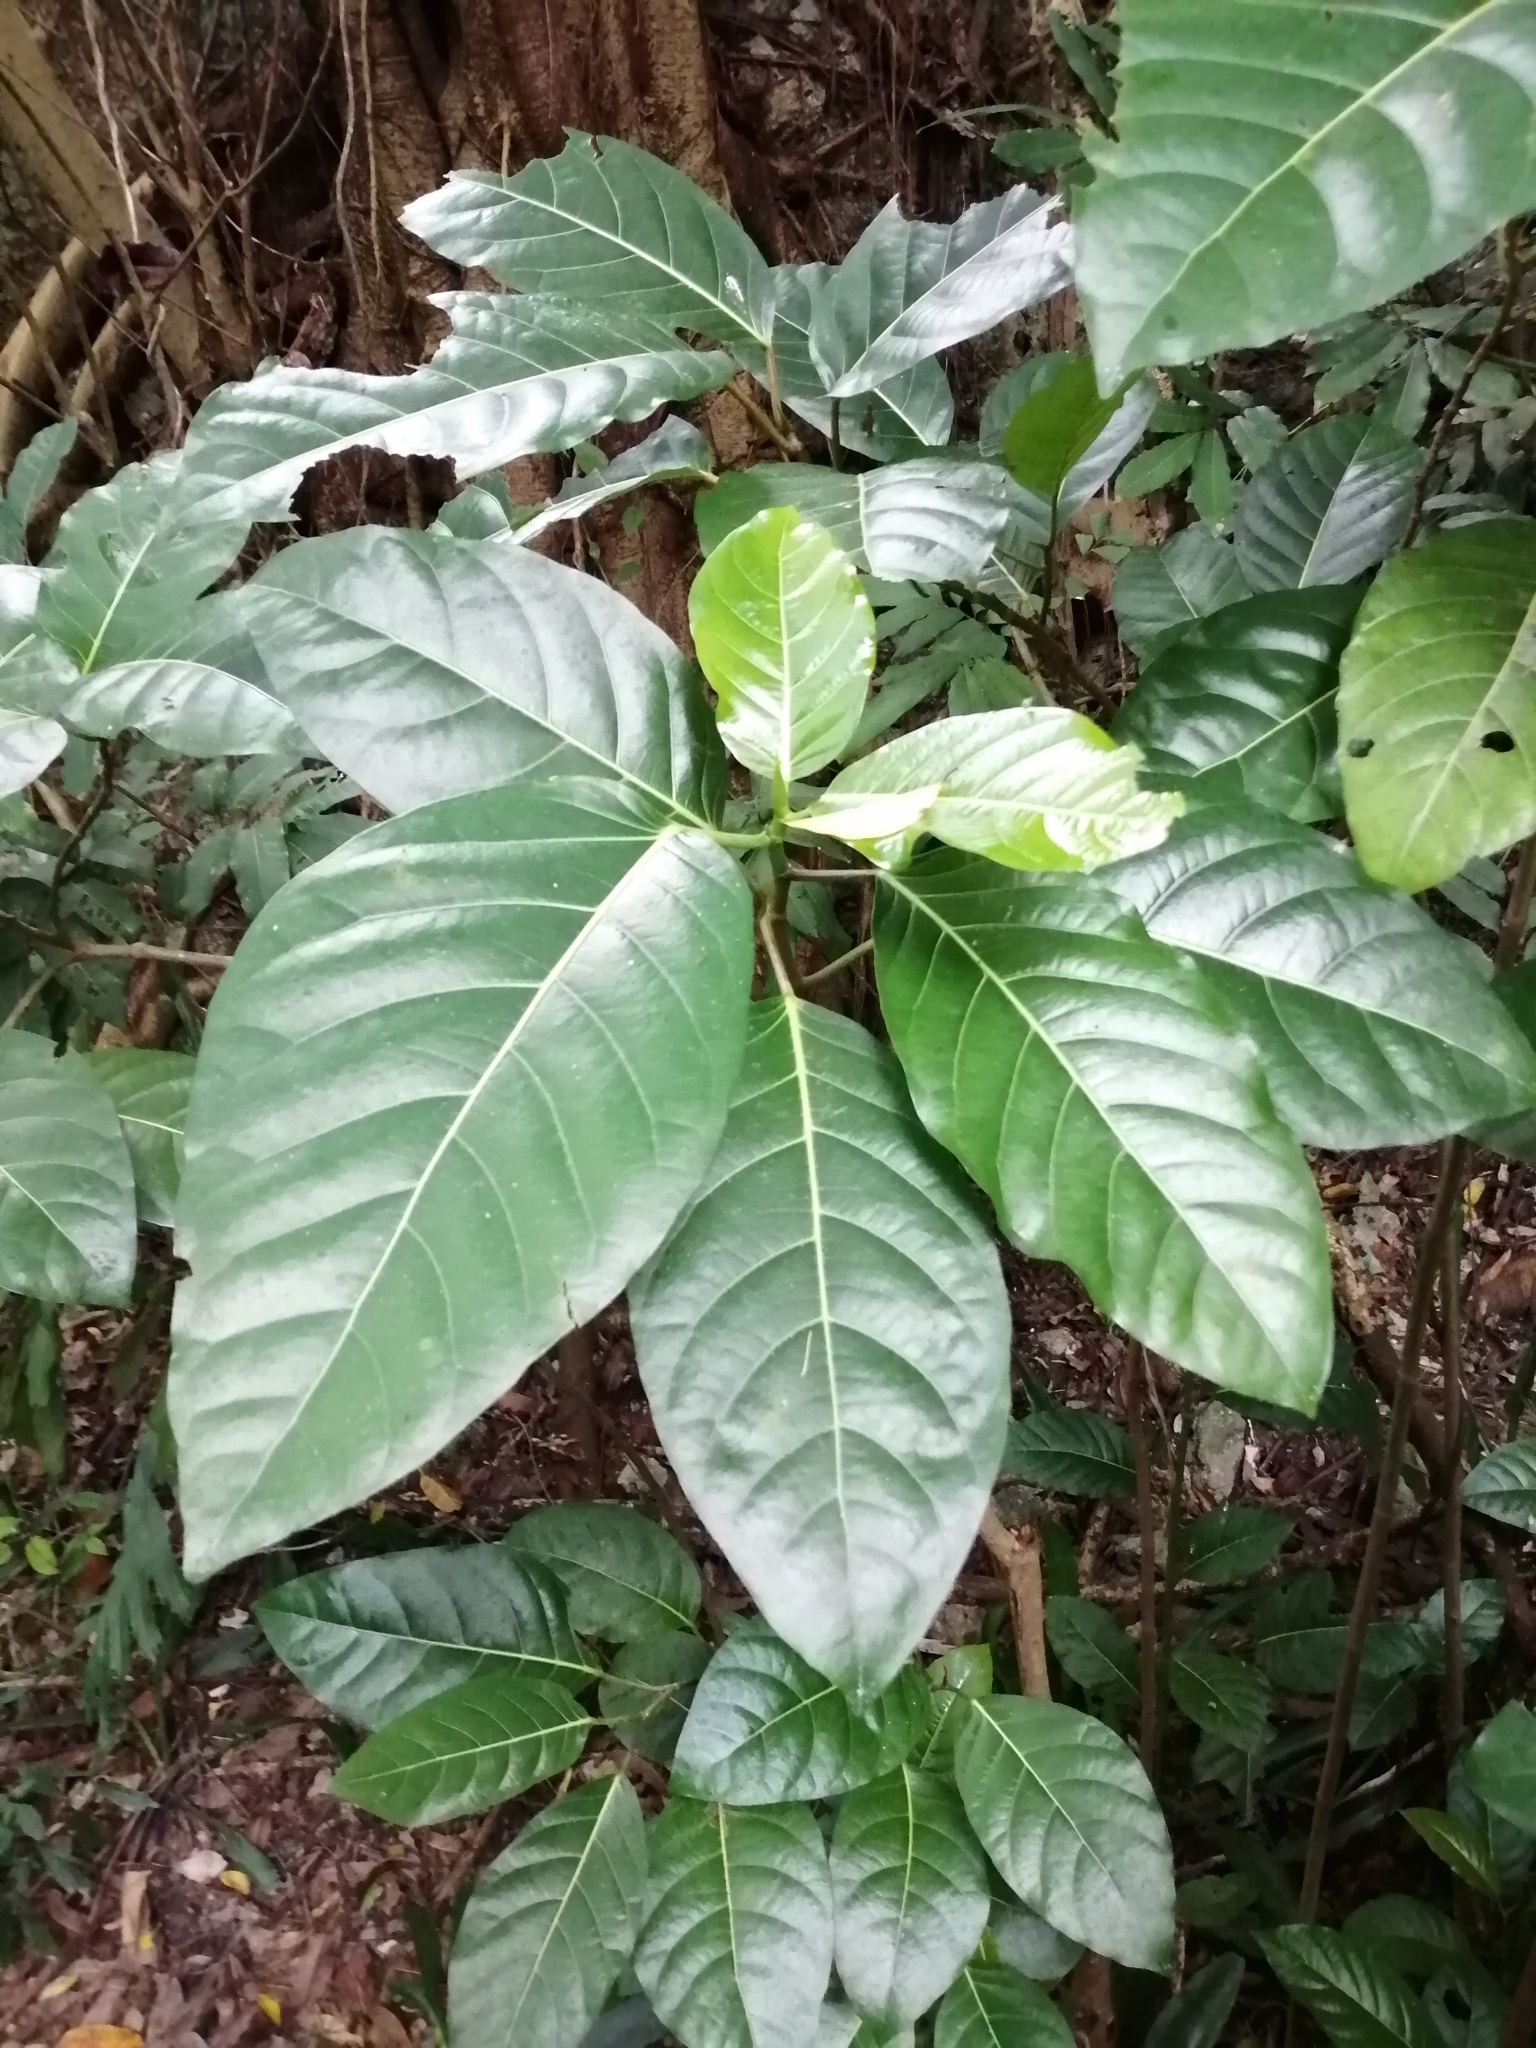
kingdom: Plantae
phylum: Tracheophyta
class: Magnoliopsida
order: Rosales
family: Moraceae
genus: Ficus
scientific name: Ficus septica
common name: Septic fig
